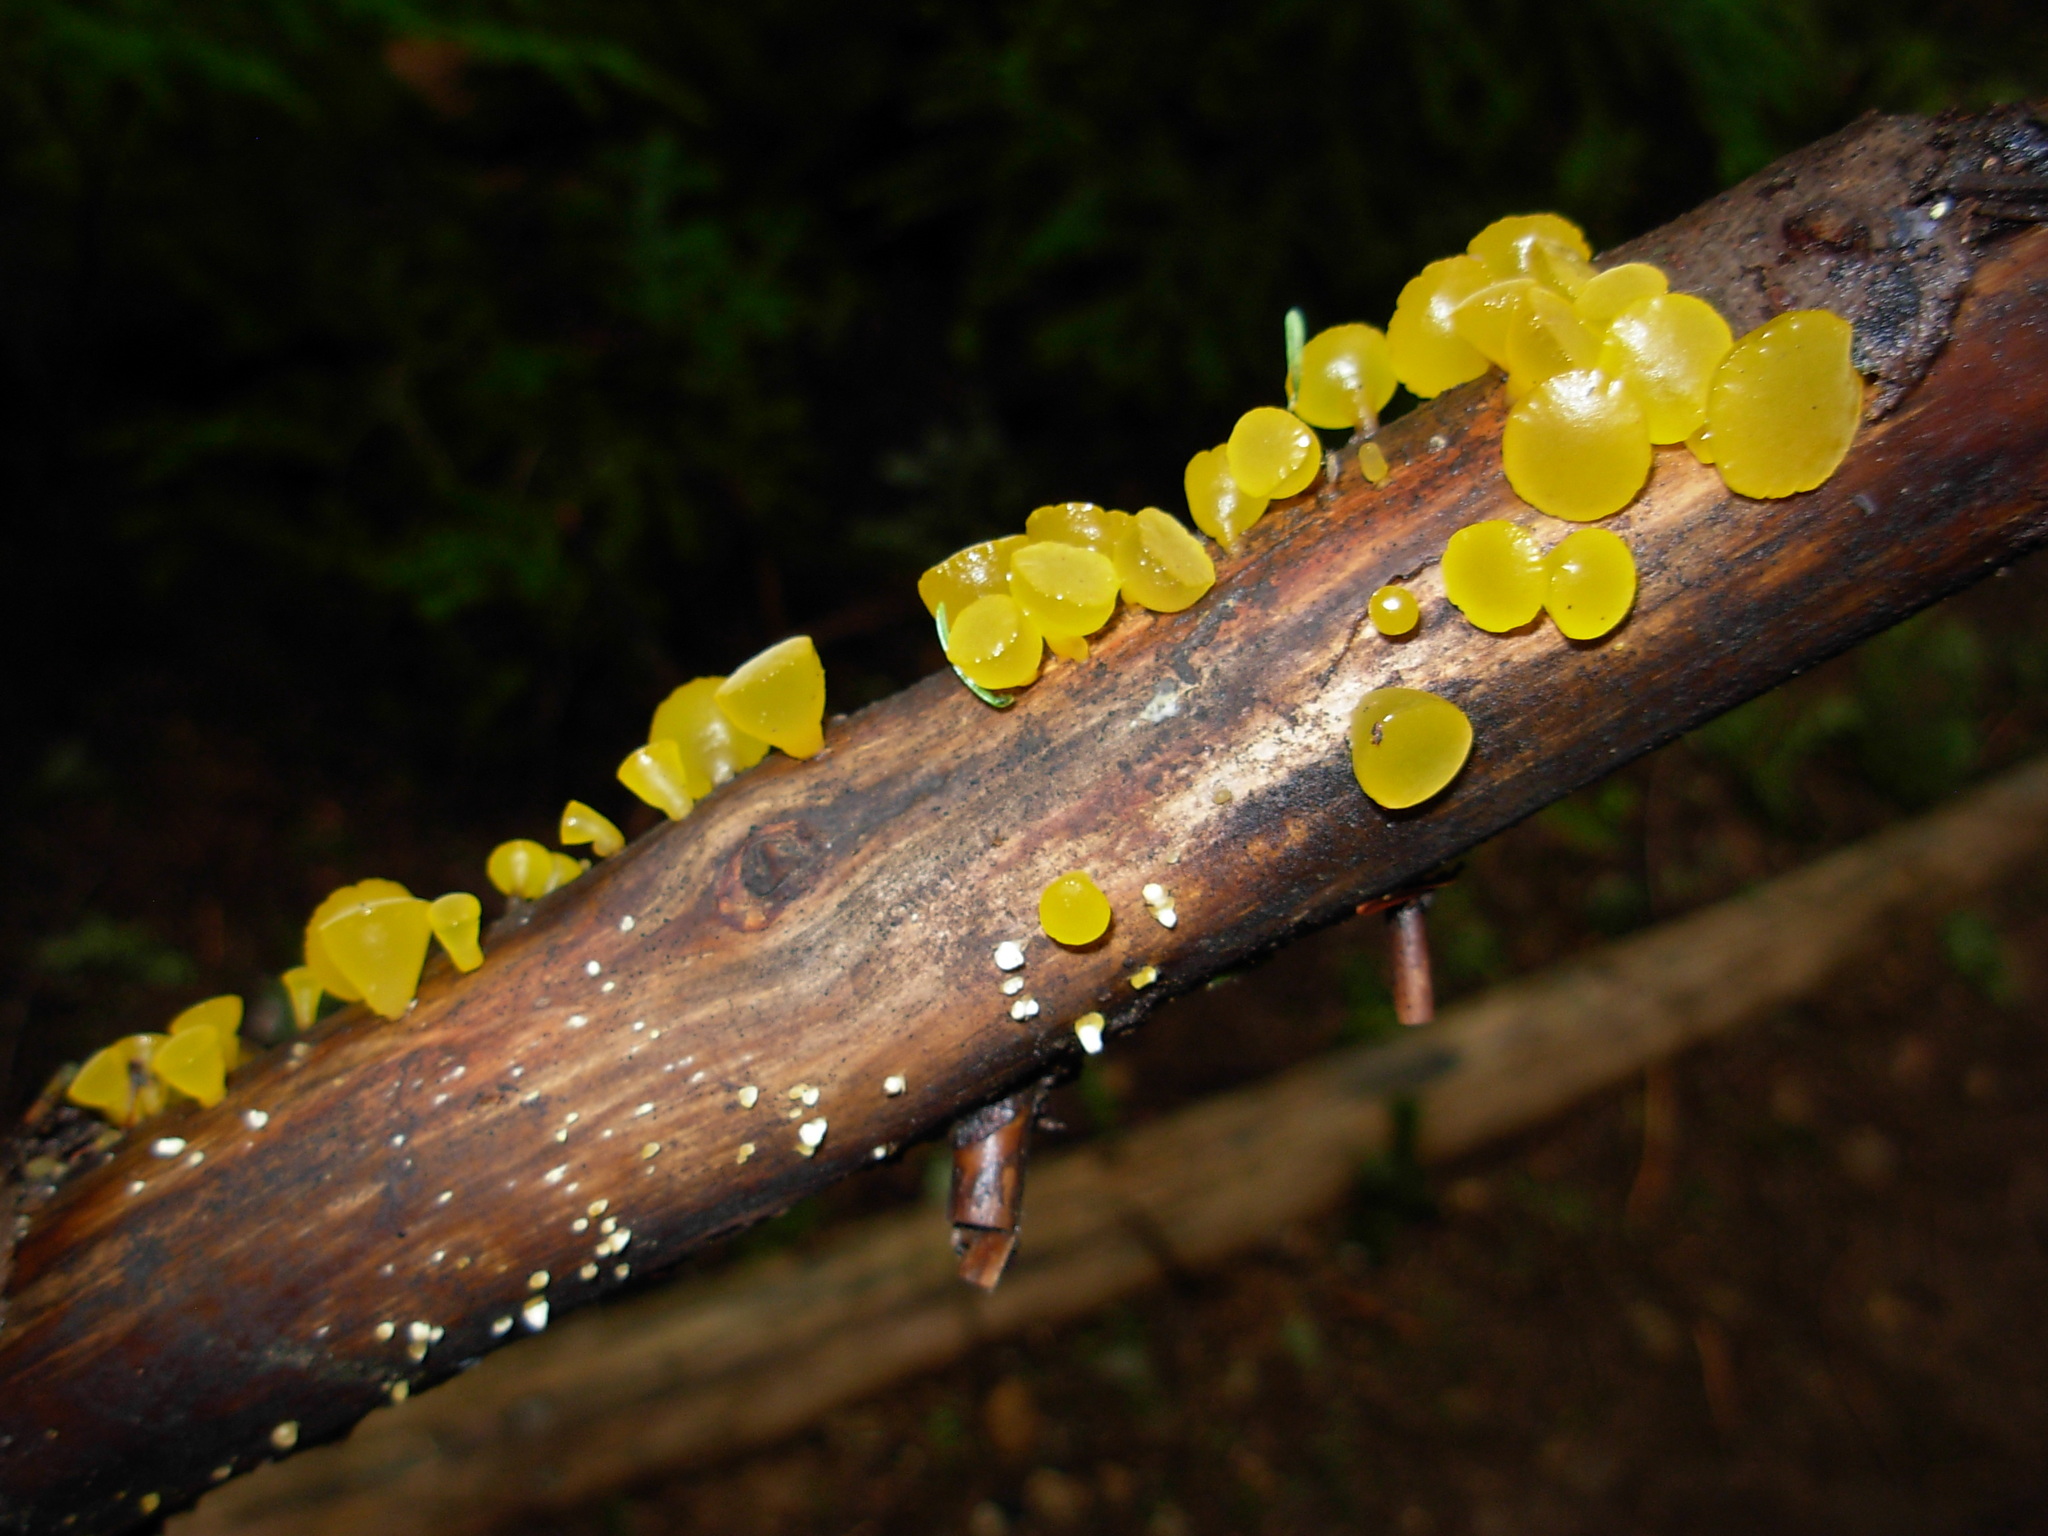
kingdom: Fungi
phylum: Basidiomycota
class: Dacrymycetes
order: Dacrymycetales
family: Dacrymycetaceae
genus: Guepiniopsis
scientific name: Guepiniopsis alpina
